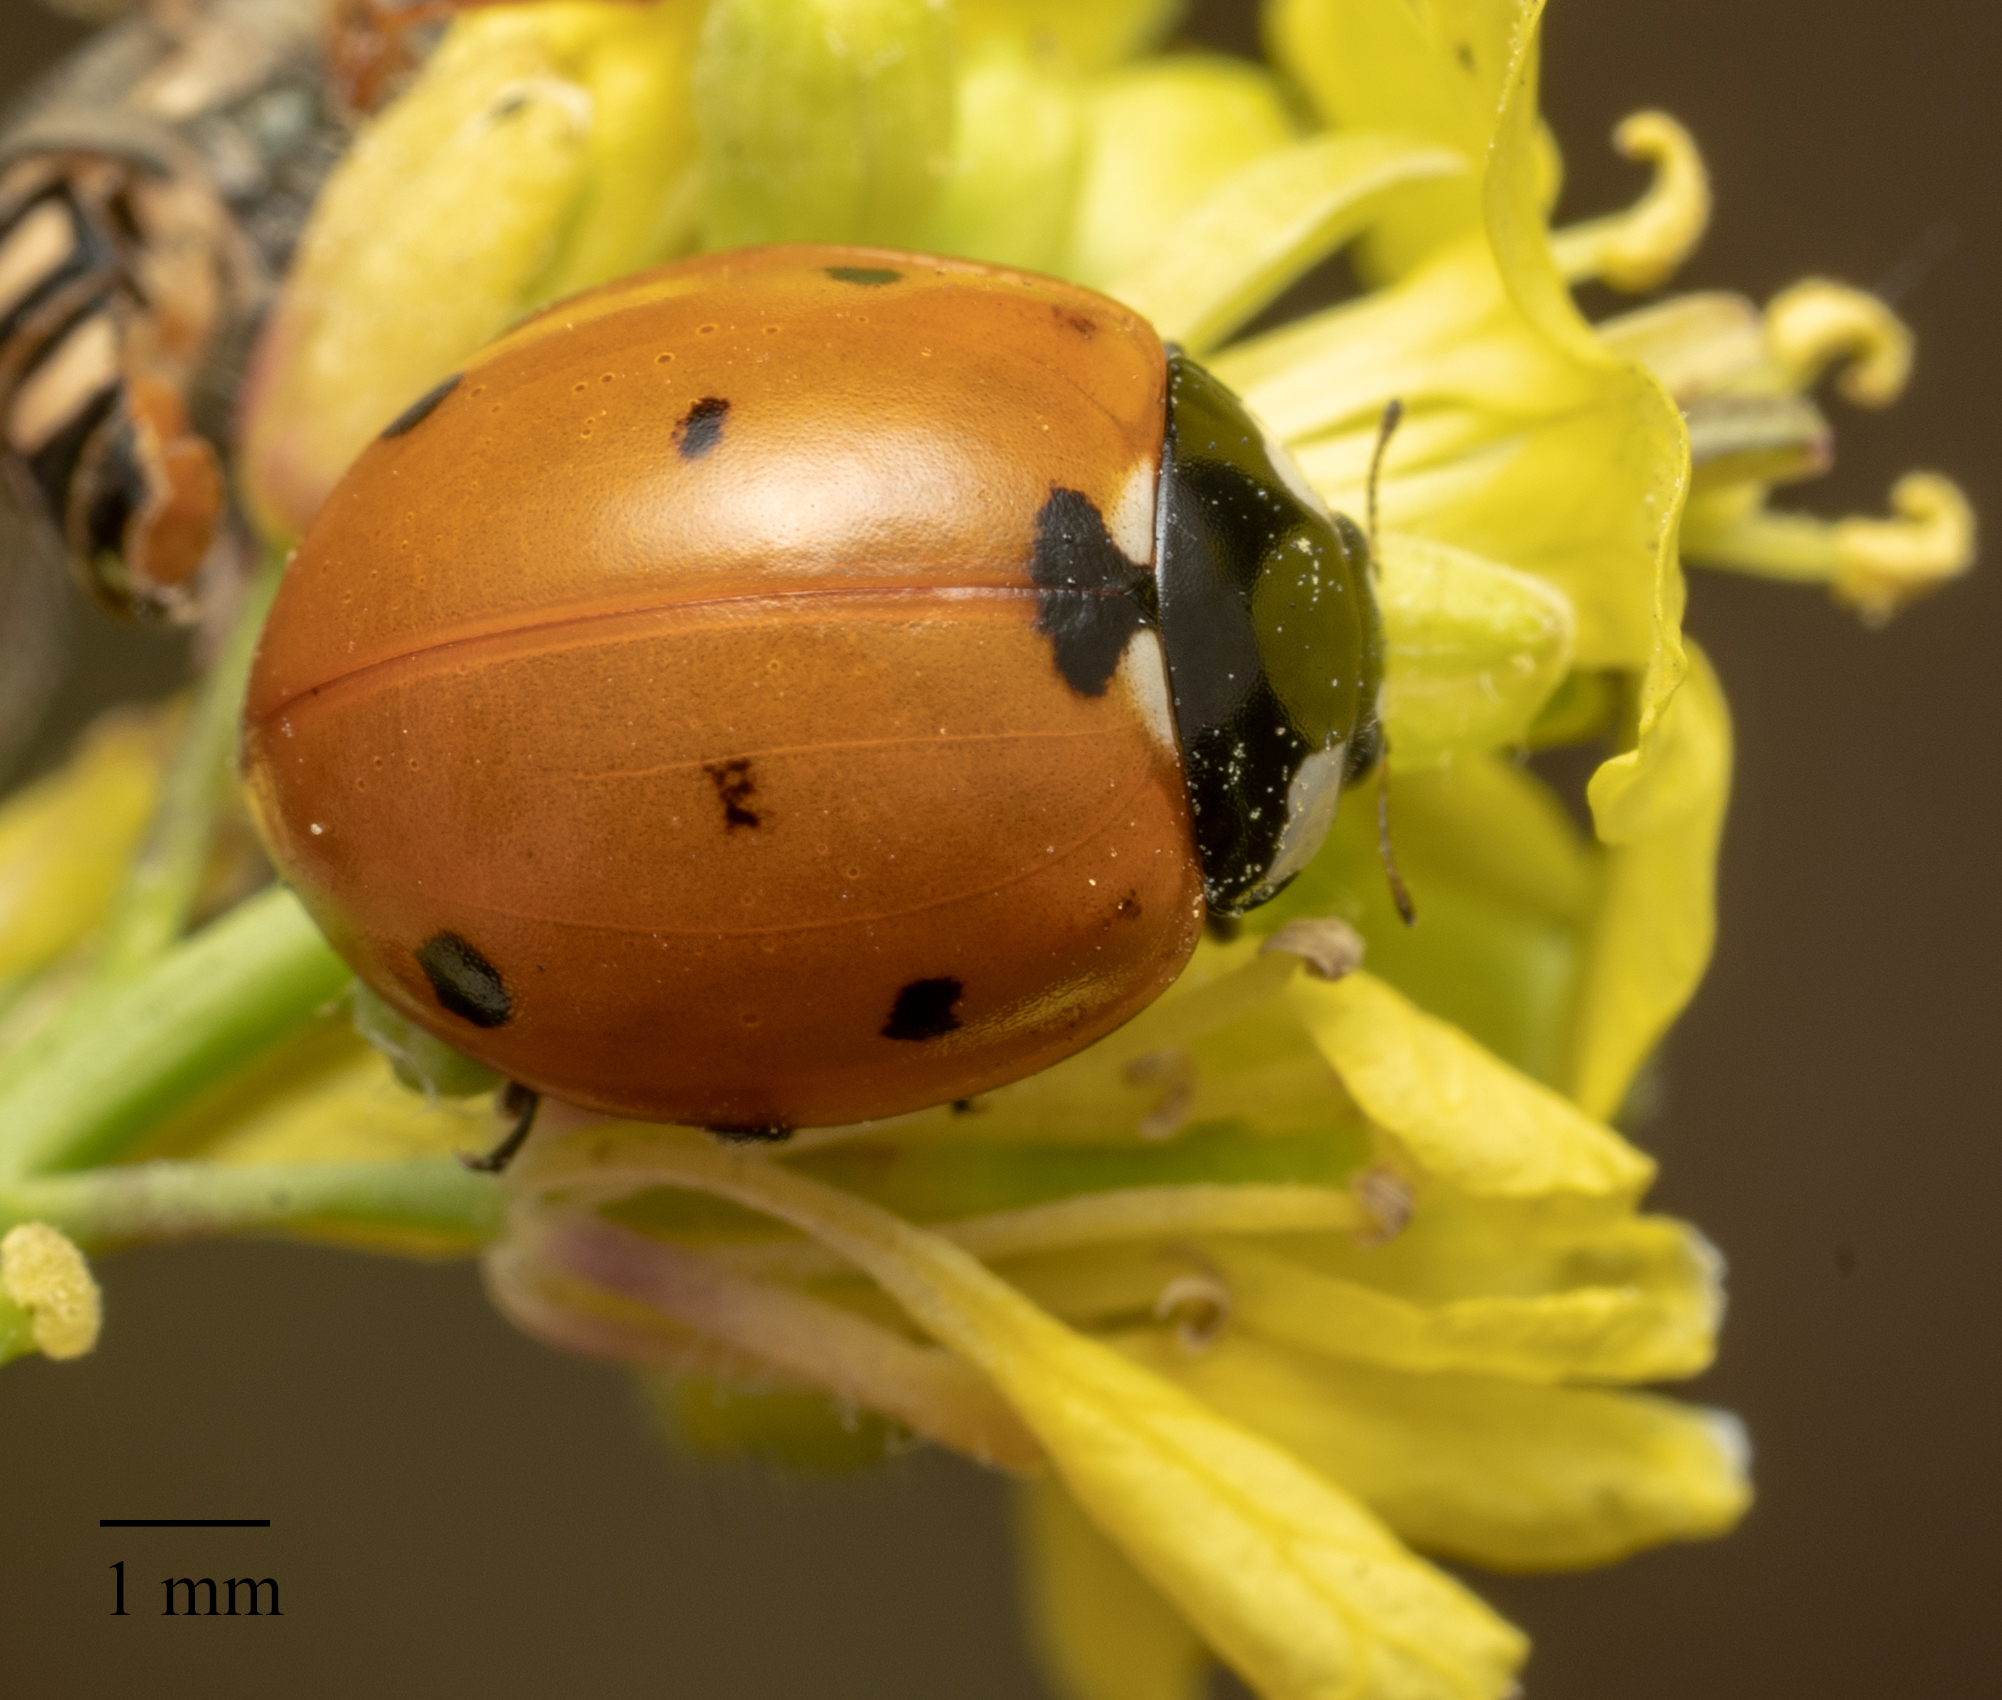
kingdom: Animalia
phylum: Arthropoda
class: Insecta
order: Coleoptera
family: Coccinellidae
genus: Coccinella
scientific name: Coccinella septempunctata
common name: Sevenspotted lady beetle
